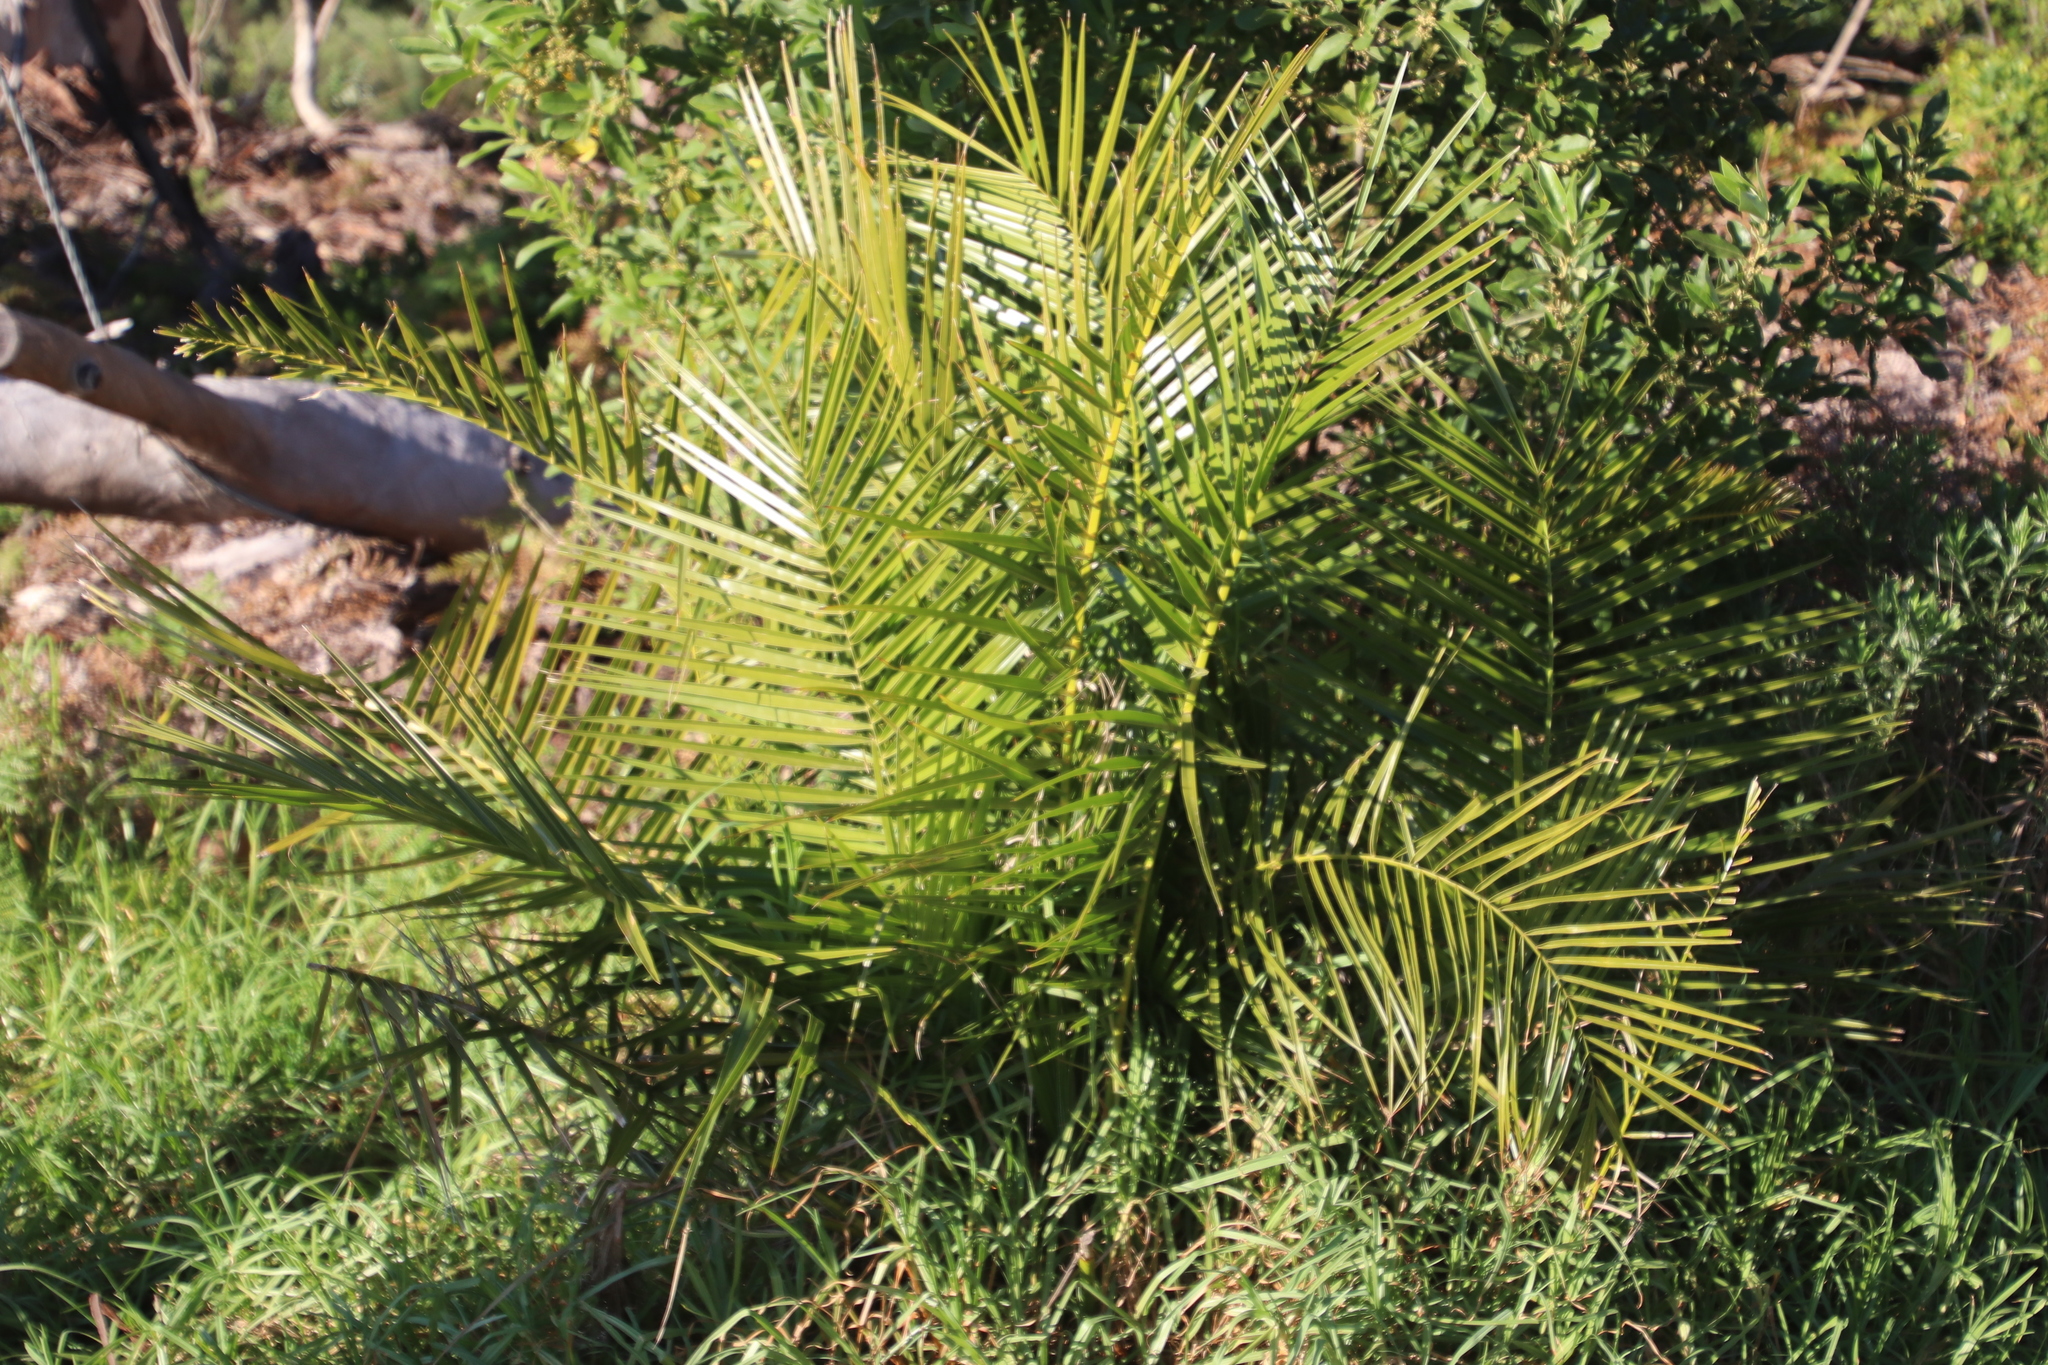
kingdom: Plantae
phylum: Tracheophyta
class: Liliopsida
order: Arecales
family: Arecaceae
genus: Phoenix
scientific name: Phoenix reclinata
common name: Senegal date palm
